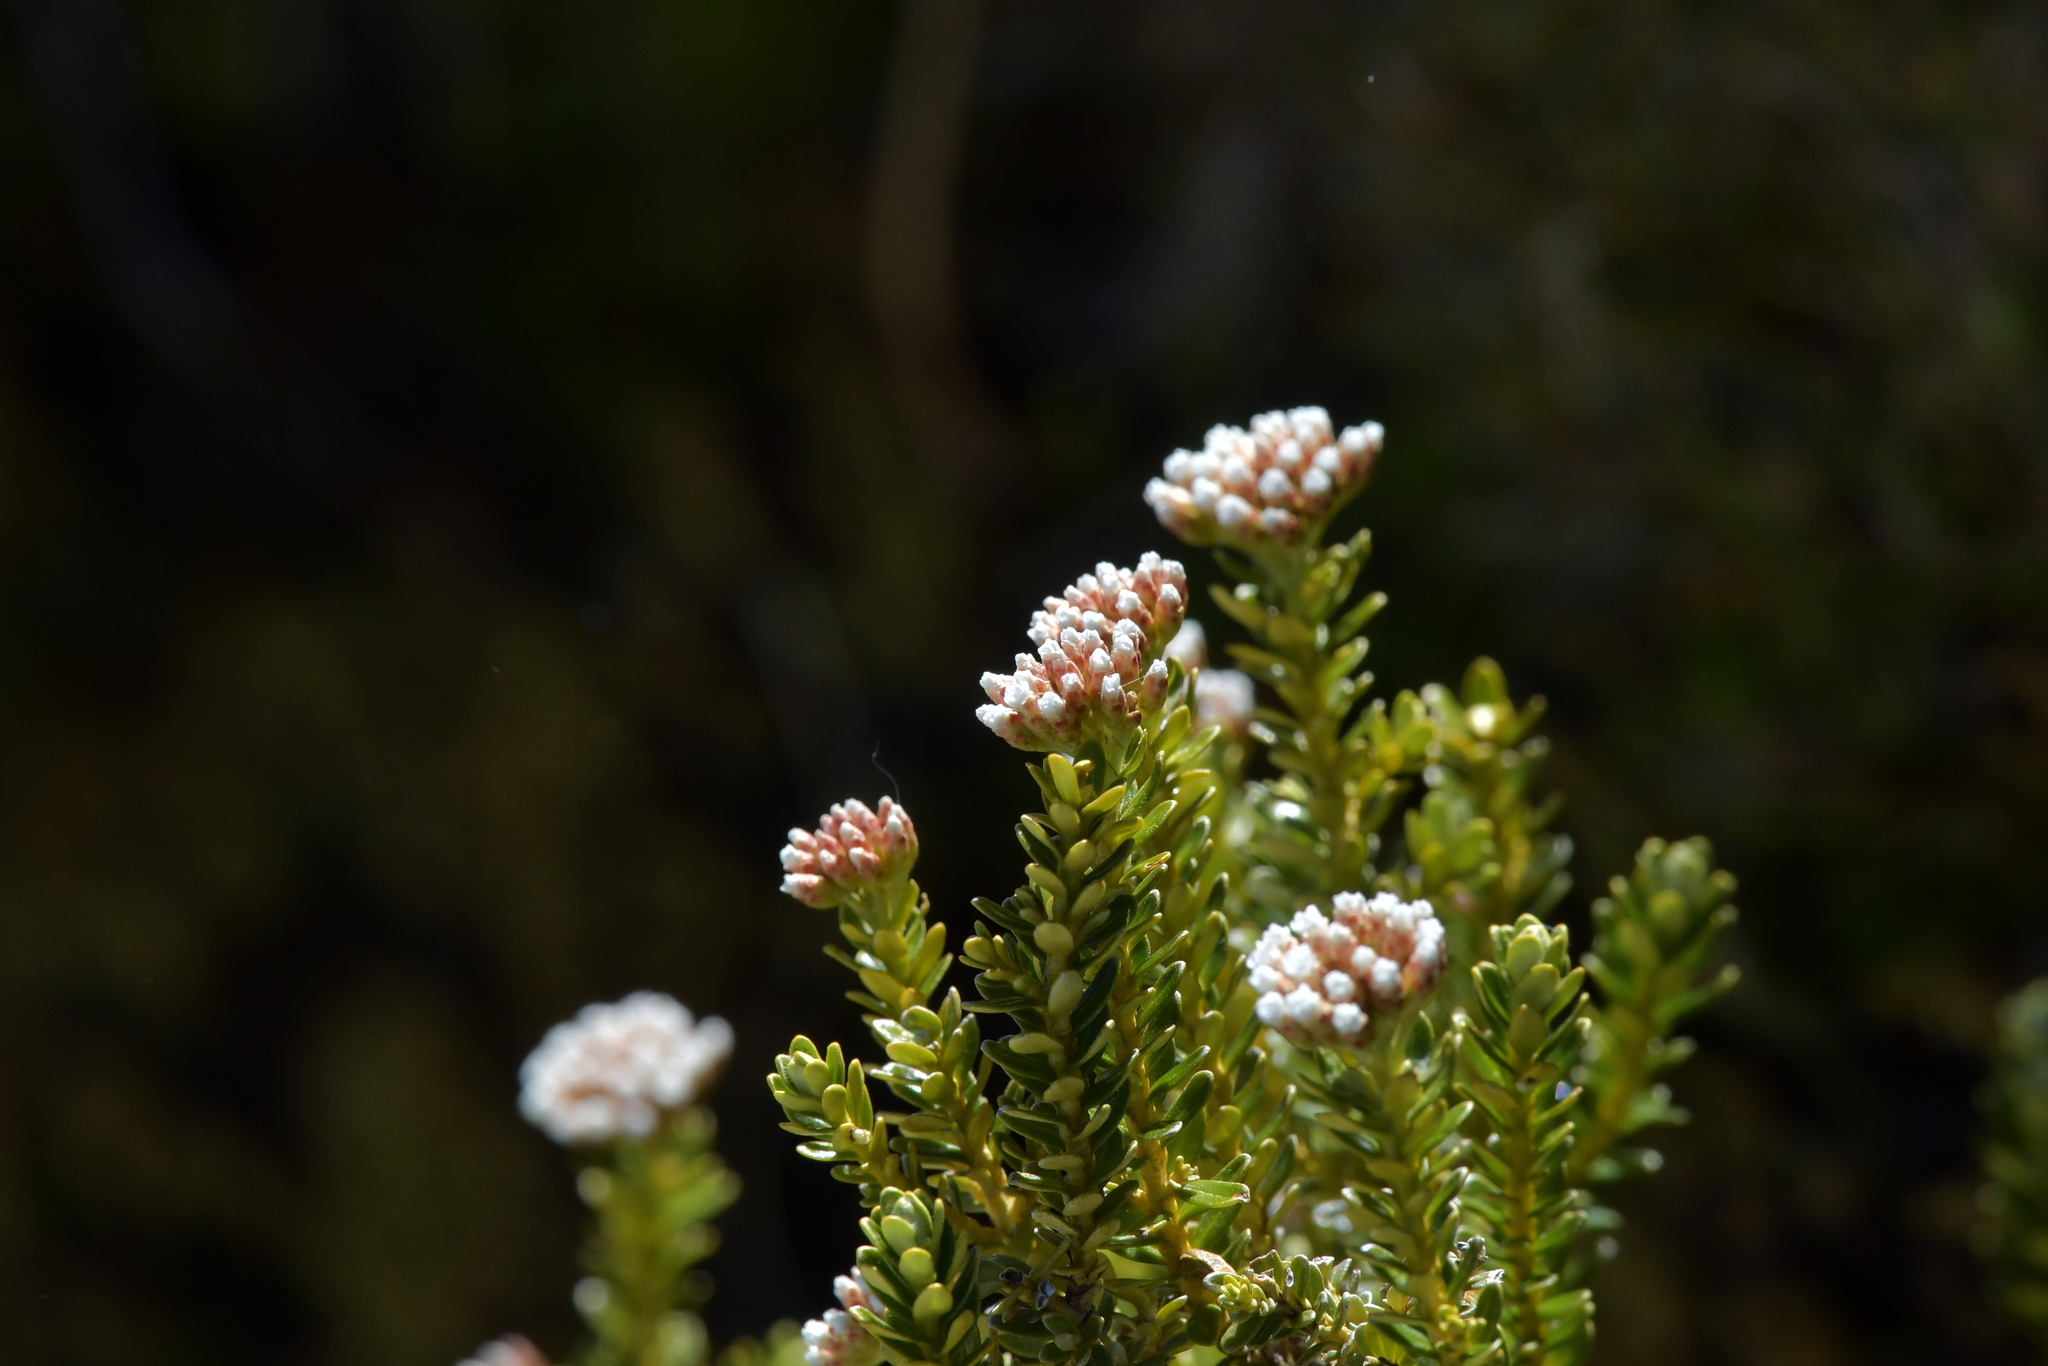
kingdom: Plantae
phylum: Tracheophyta
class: Magnoliopsida
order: Asterales
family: Asteraceae
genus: Ozothamnus
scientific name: Ozothamnus leptophyllus
